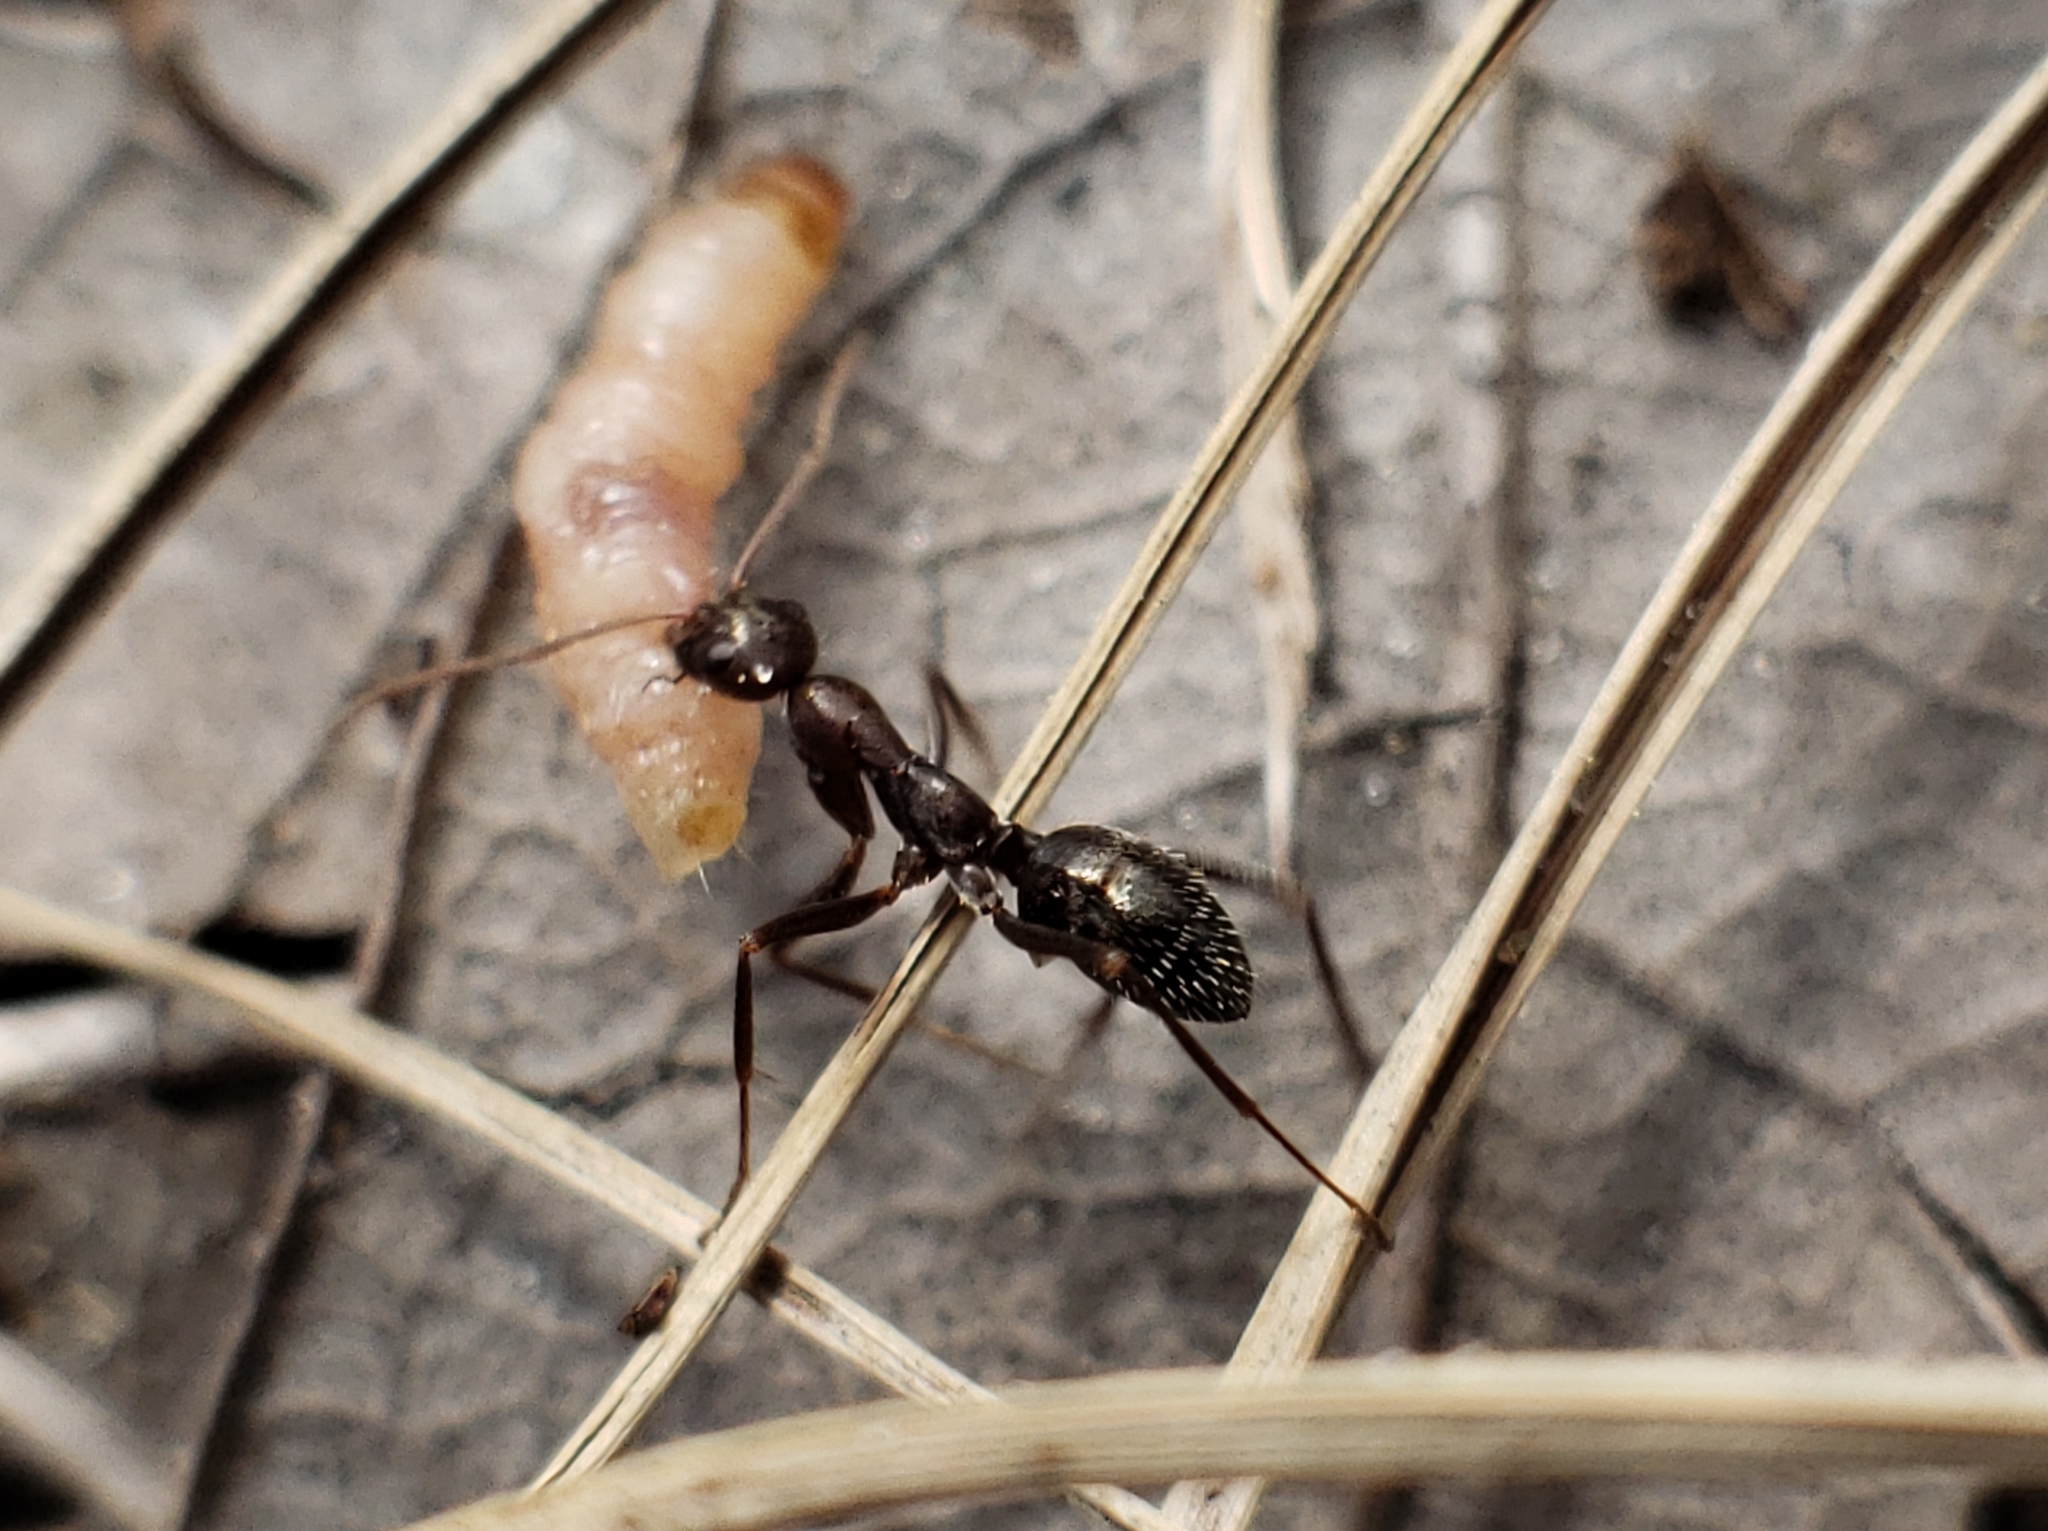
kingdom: Animalia
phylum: Arthropoda
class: Insecta
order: Hymenoptera
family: Formicidae
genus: Formica
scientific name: Formica archboldi
